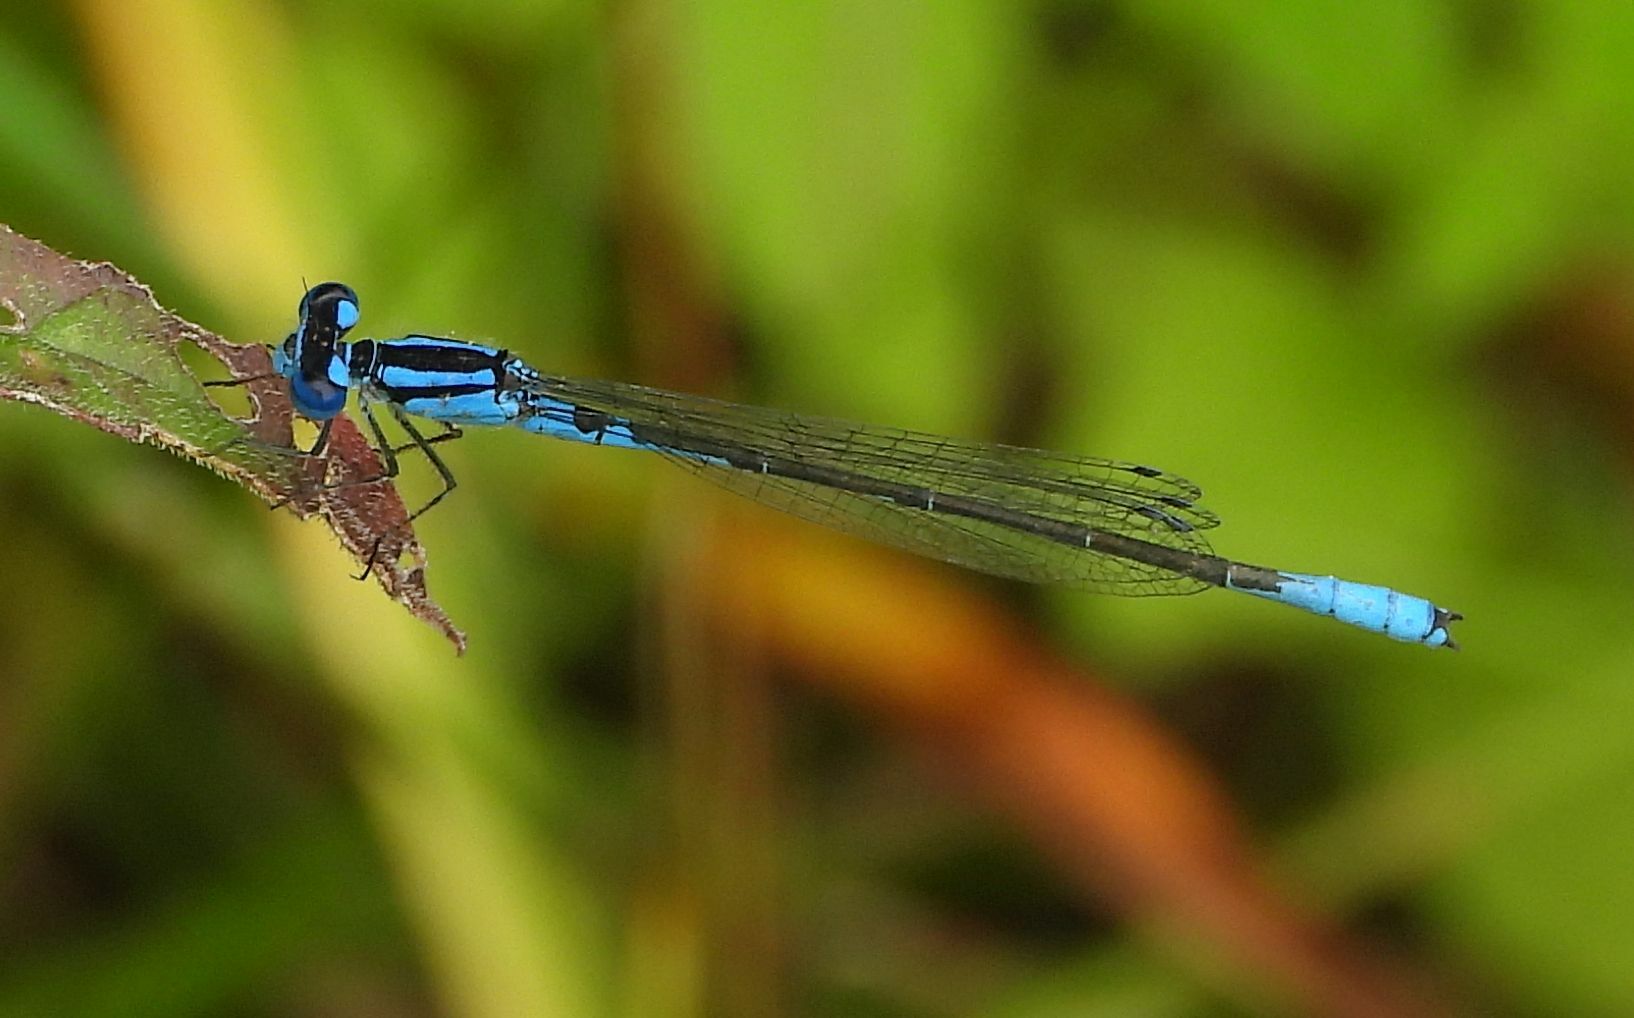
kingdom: Animalia
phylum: Arthropoda
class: Insecta
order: Odonata
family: Coenagrionidae
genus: Enallagma
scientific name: Enallagma aspersum
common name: Azure bluet
